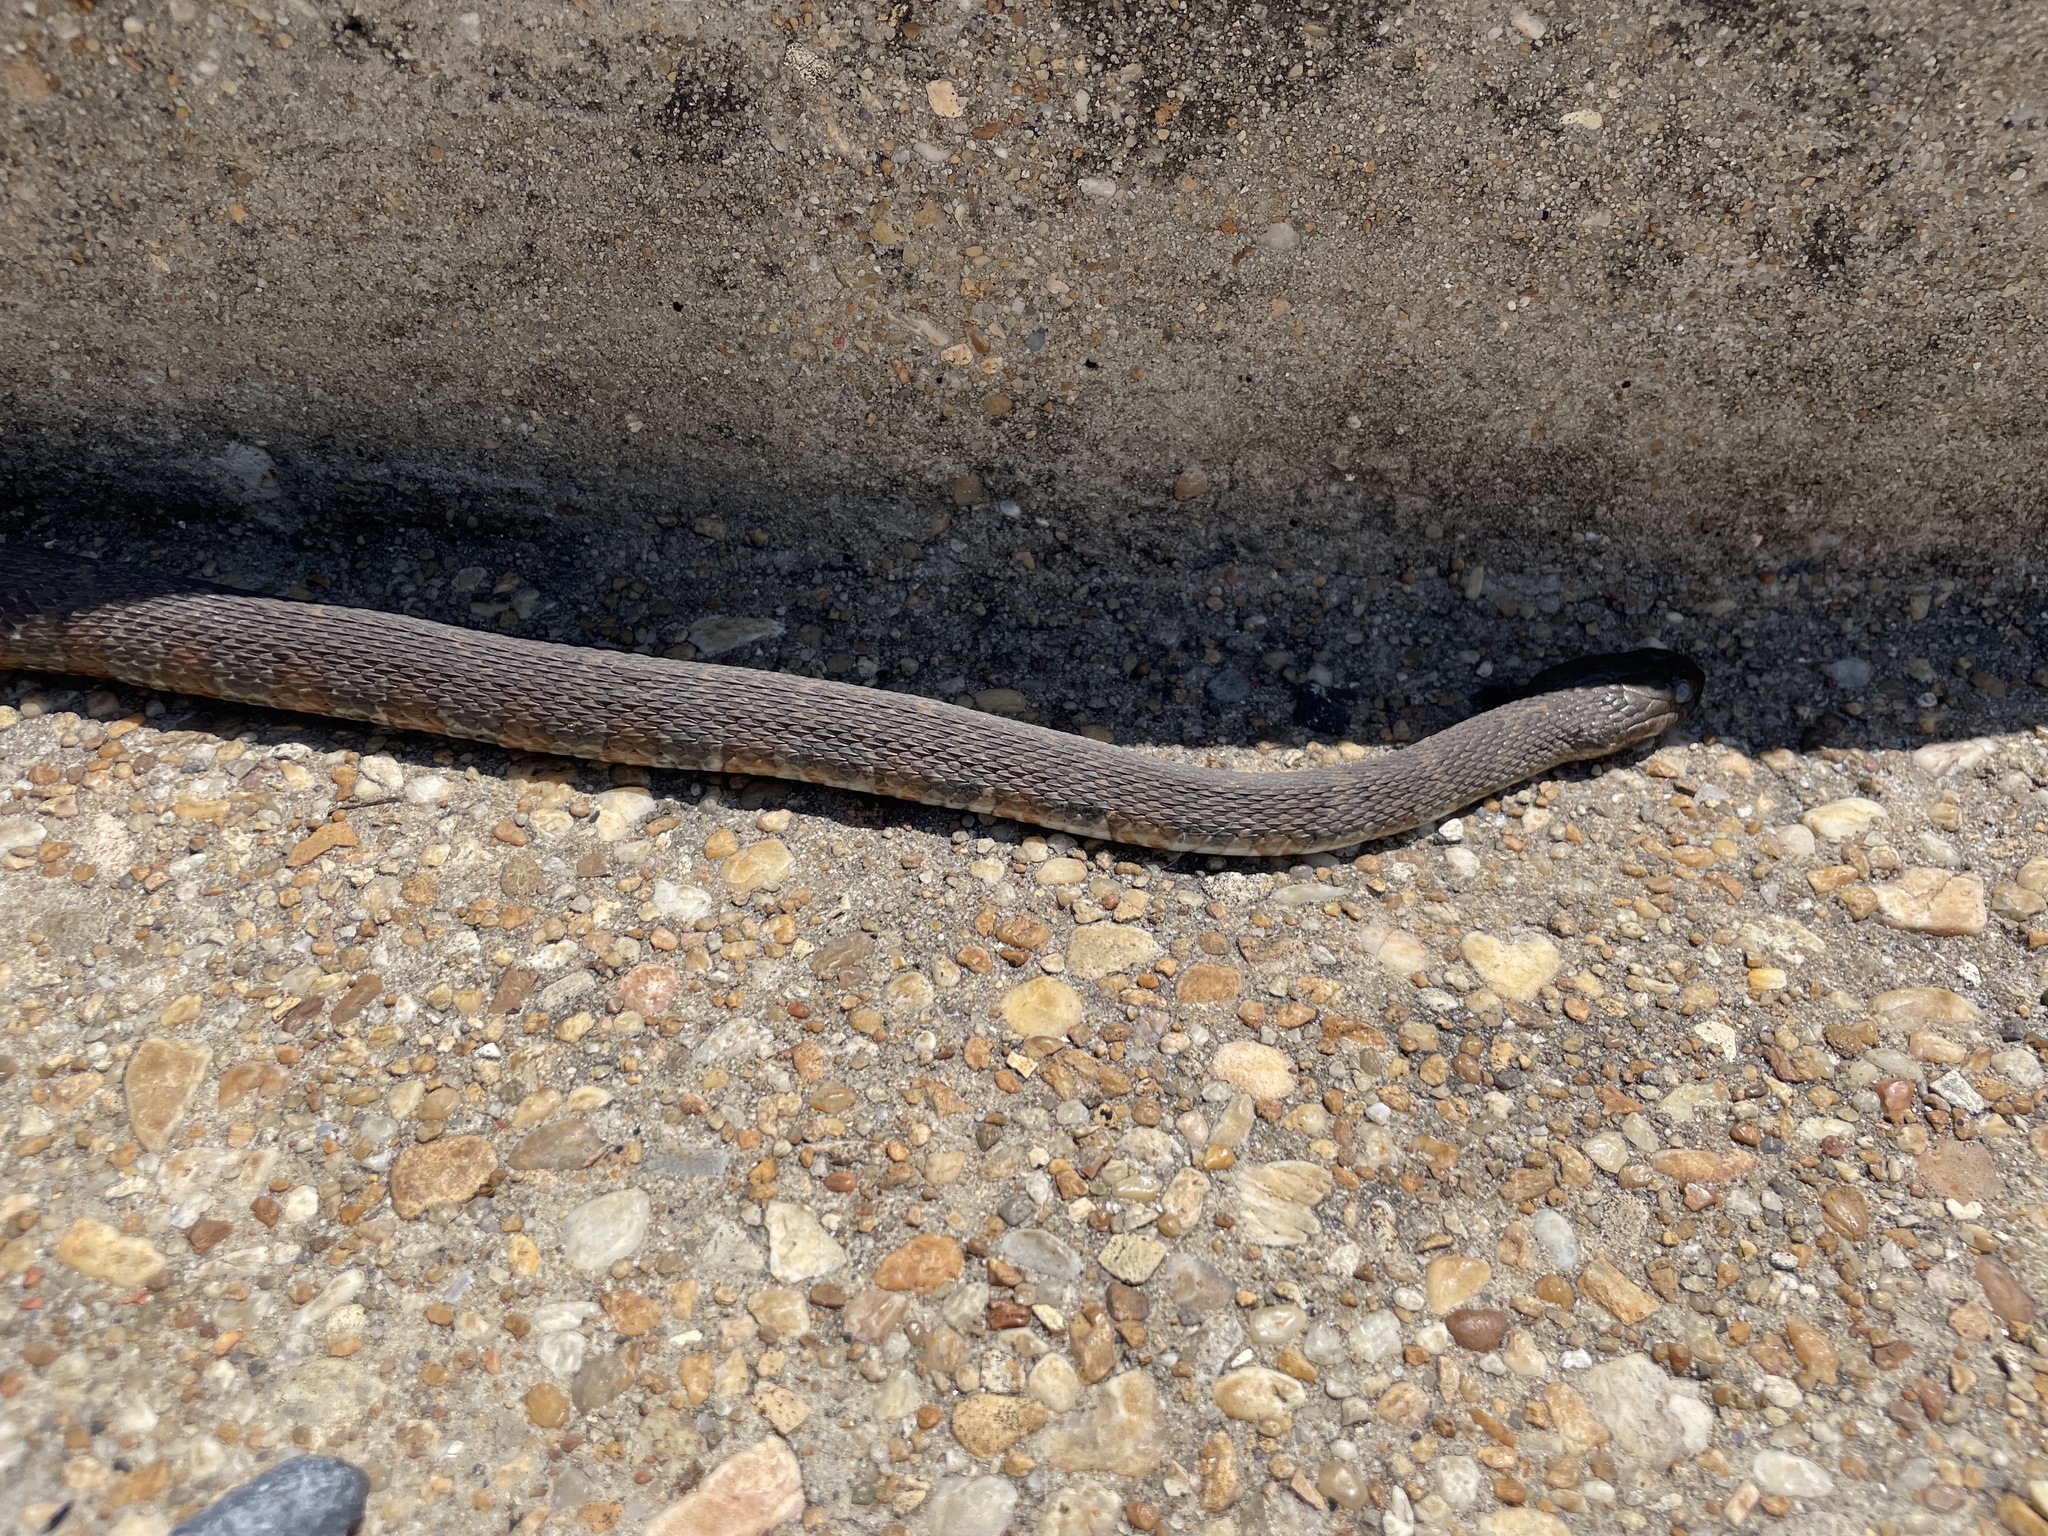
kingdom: Animalia
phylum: Chordata
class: Squamata
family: Colubridae
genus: Nerodia
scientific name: Nerodia sipedon
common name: Northern water snake
